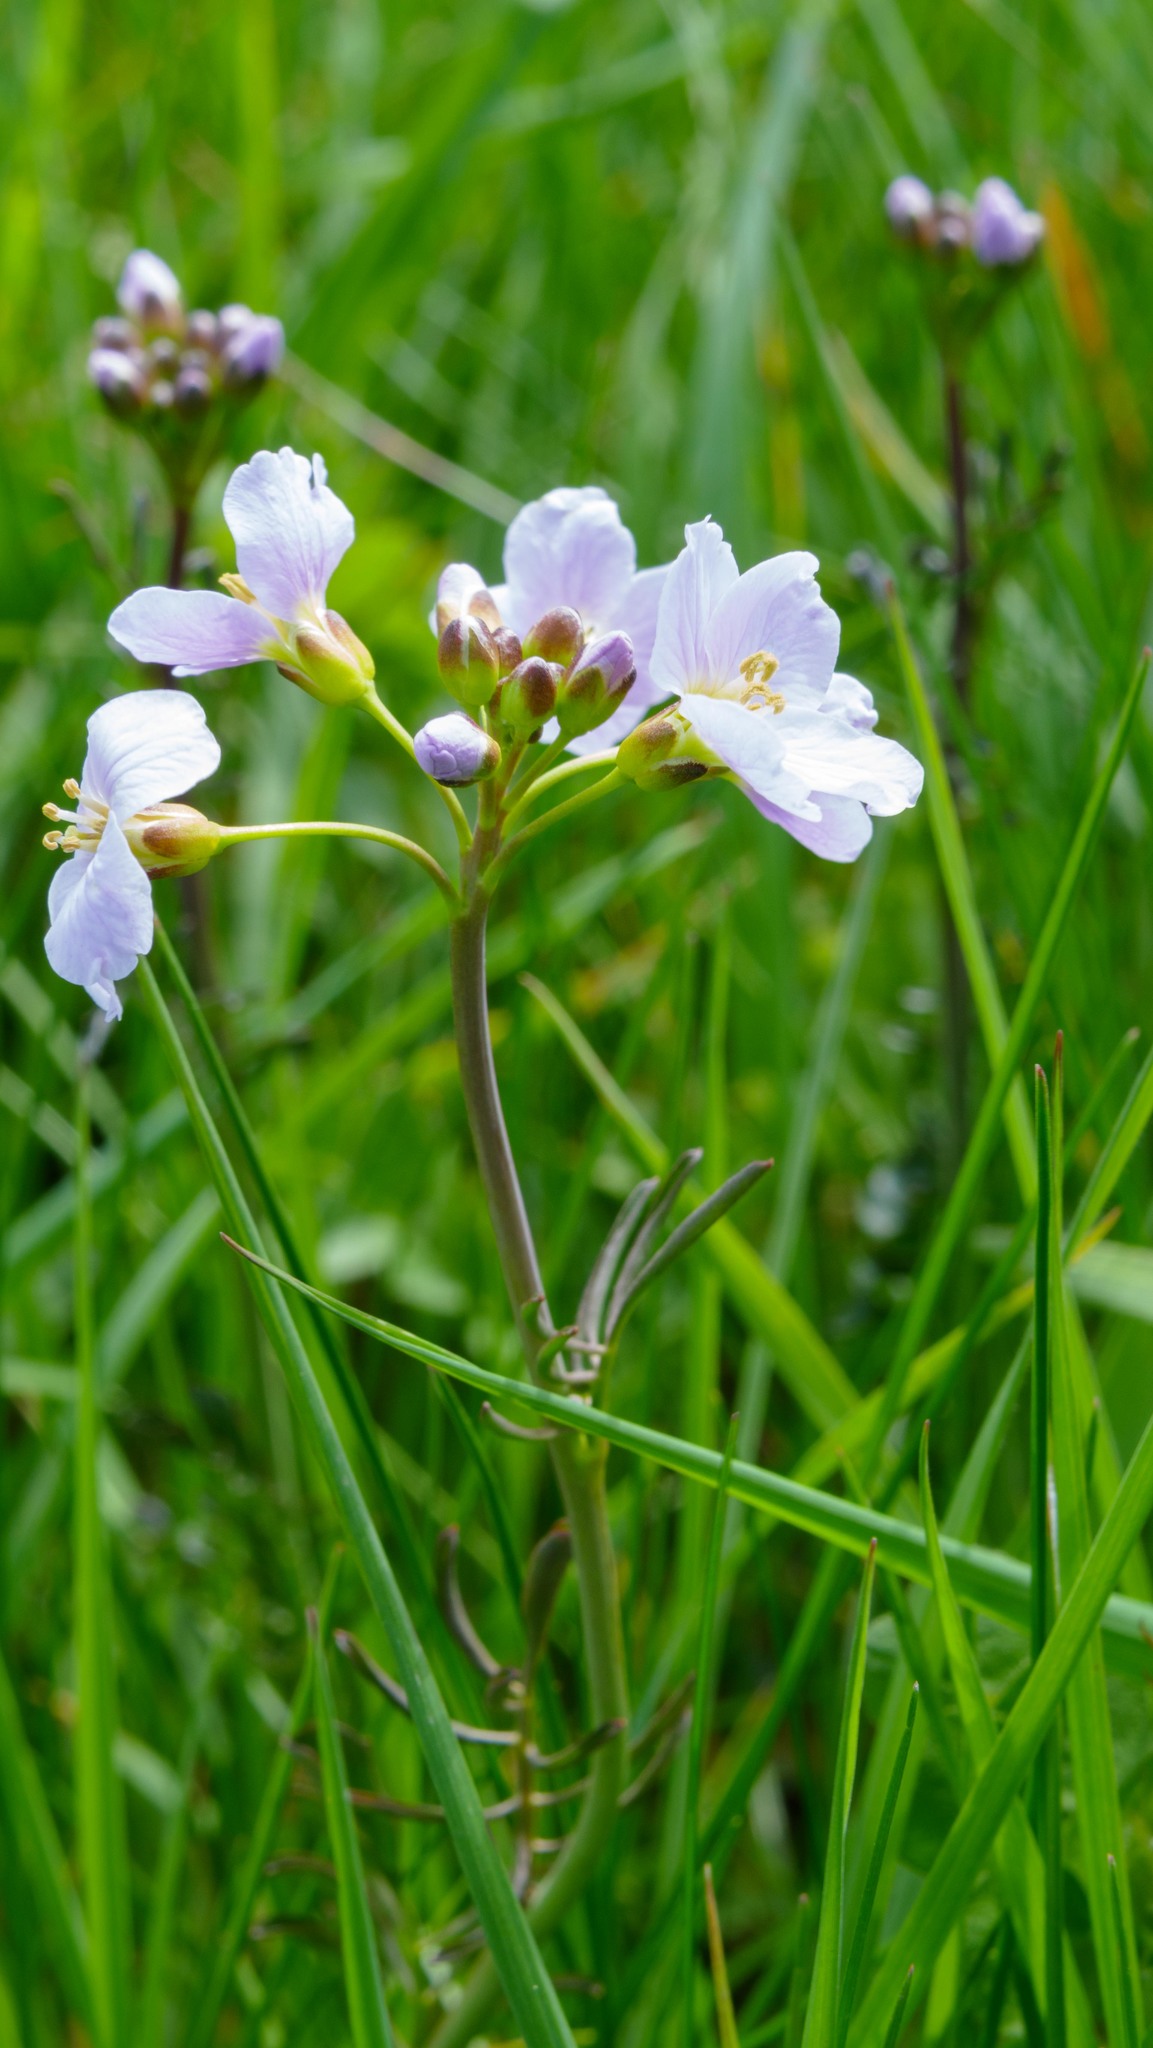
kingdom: Plantae
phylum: Tracheophyta
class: Magnoliopsida
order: Brassicales
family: Brassicaceae
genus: Cardamine
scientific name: Cardamine pratensis
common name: Cuckoo flower
